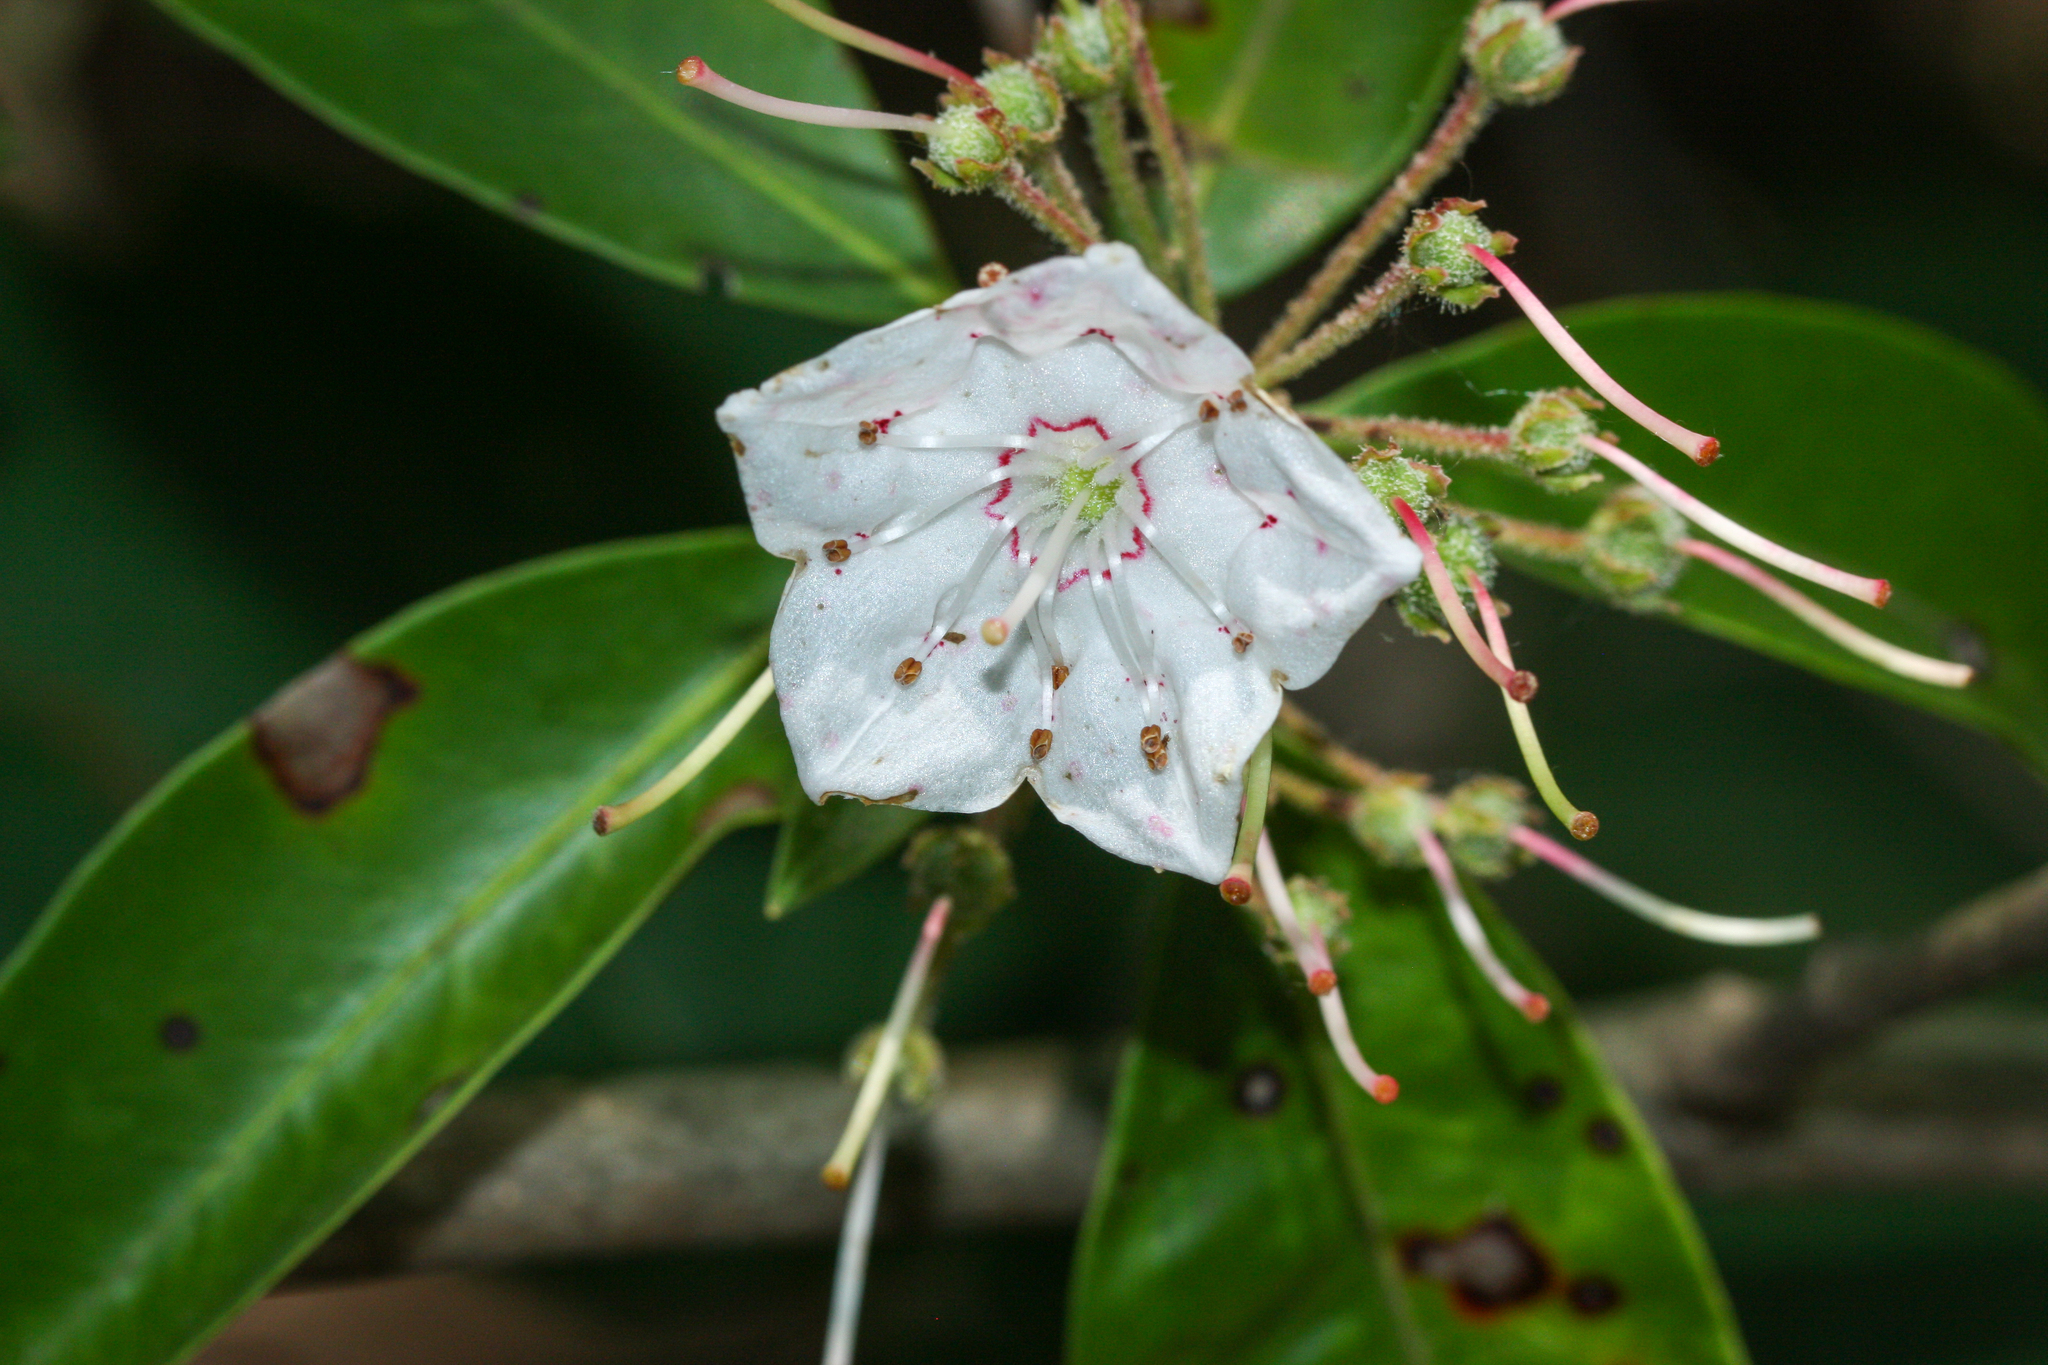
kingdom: Plantae
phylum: Tracheophyta
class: Magnoliopsida
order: Ericales
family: Ericaceae
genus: Kalmia
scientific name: Kalmia latifolia
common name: Mountain-laurel
